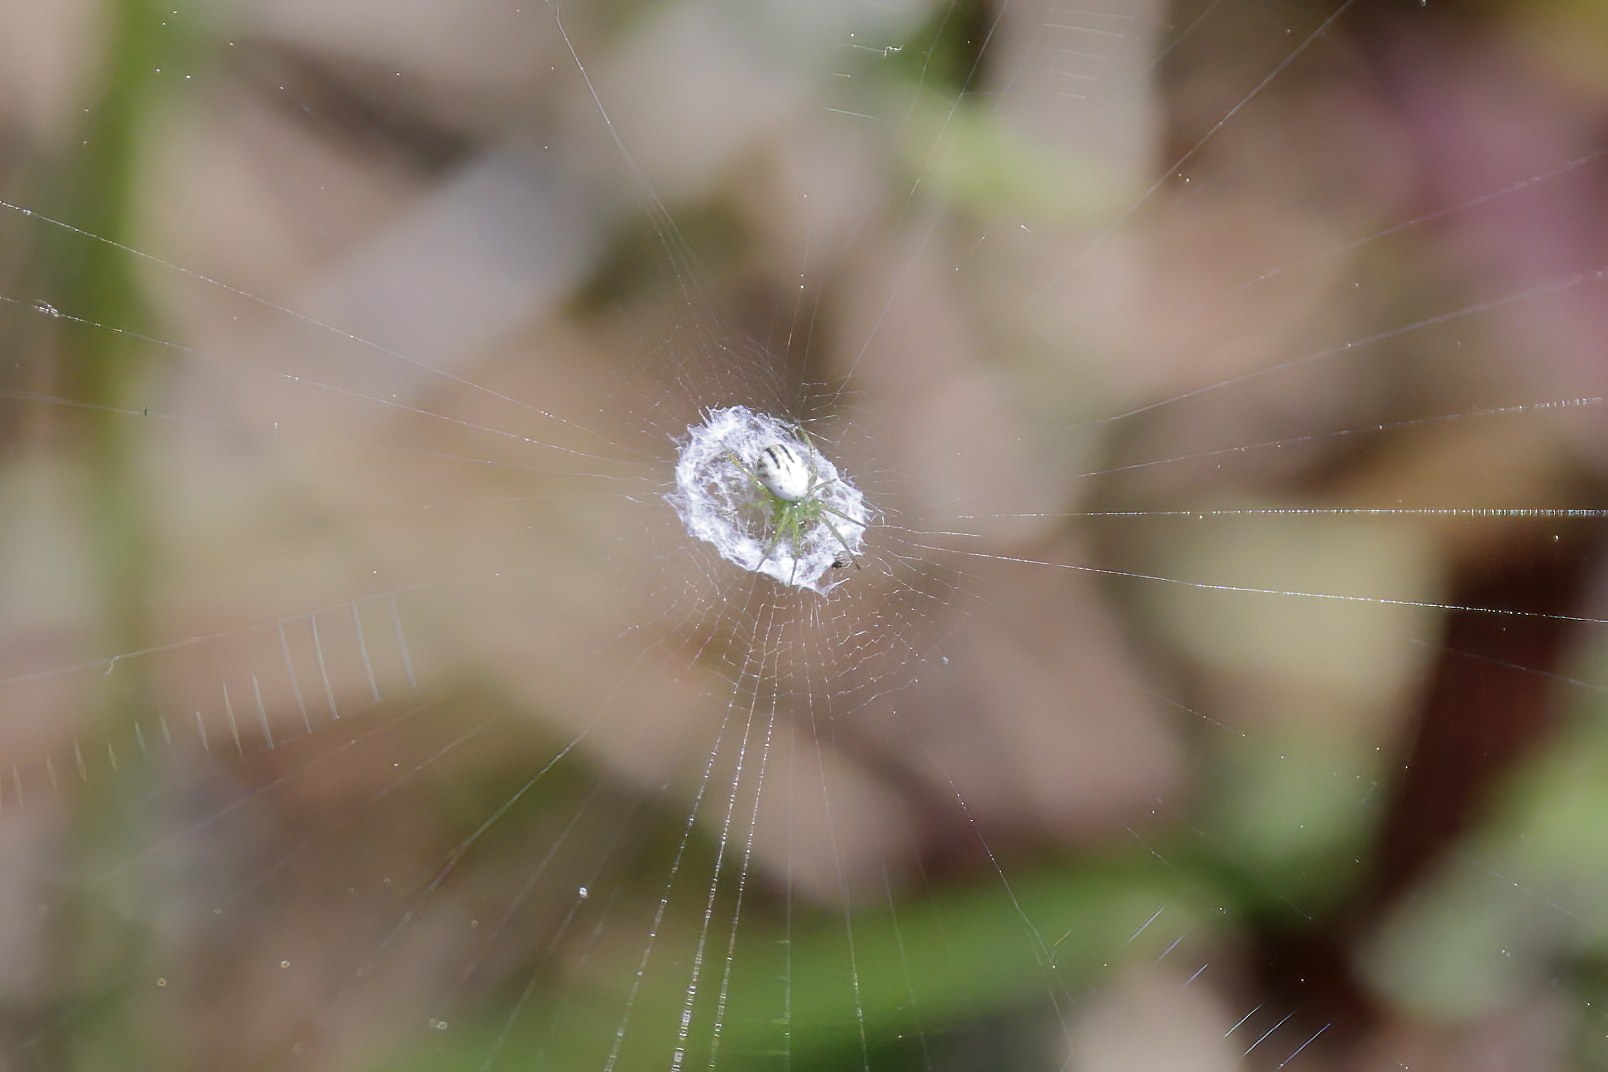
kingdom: Animalia
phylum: Arthropoda
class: Arachnida
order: Araneae
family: Araneidae
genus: Mangora
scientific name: Mangora gibberosa
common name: Lined orbweaver
